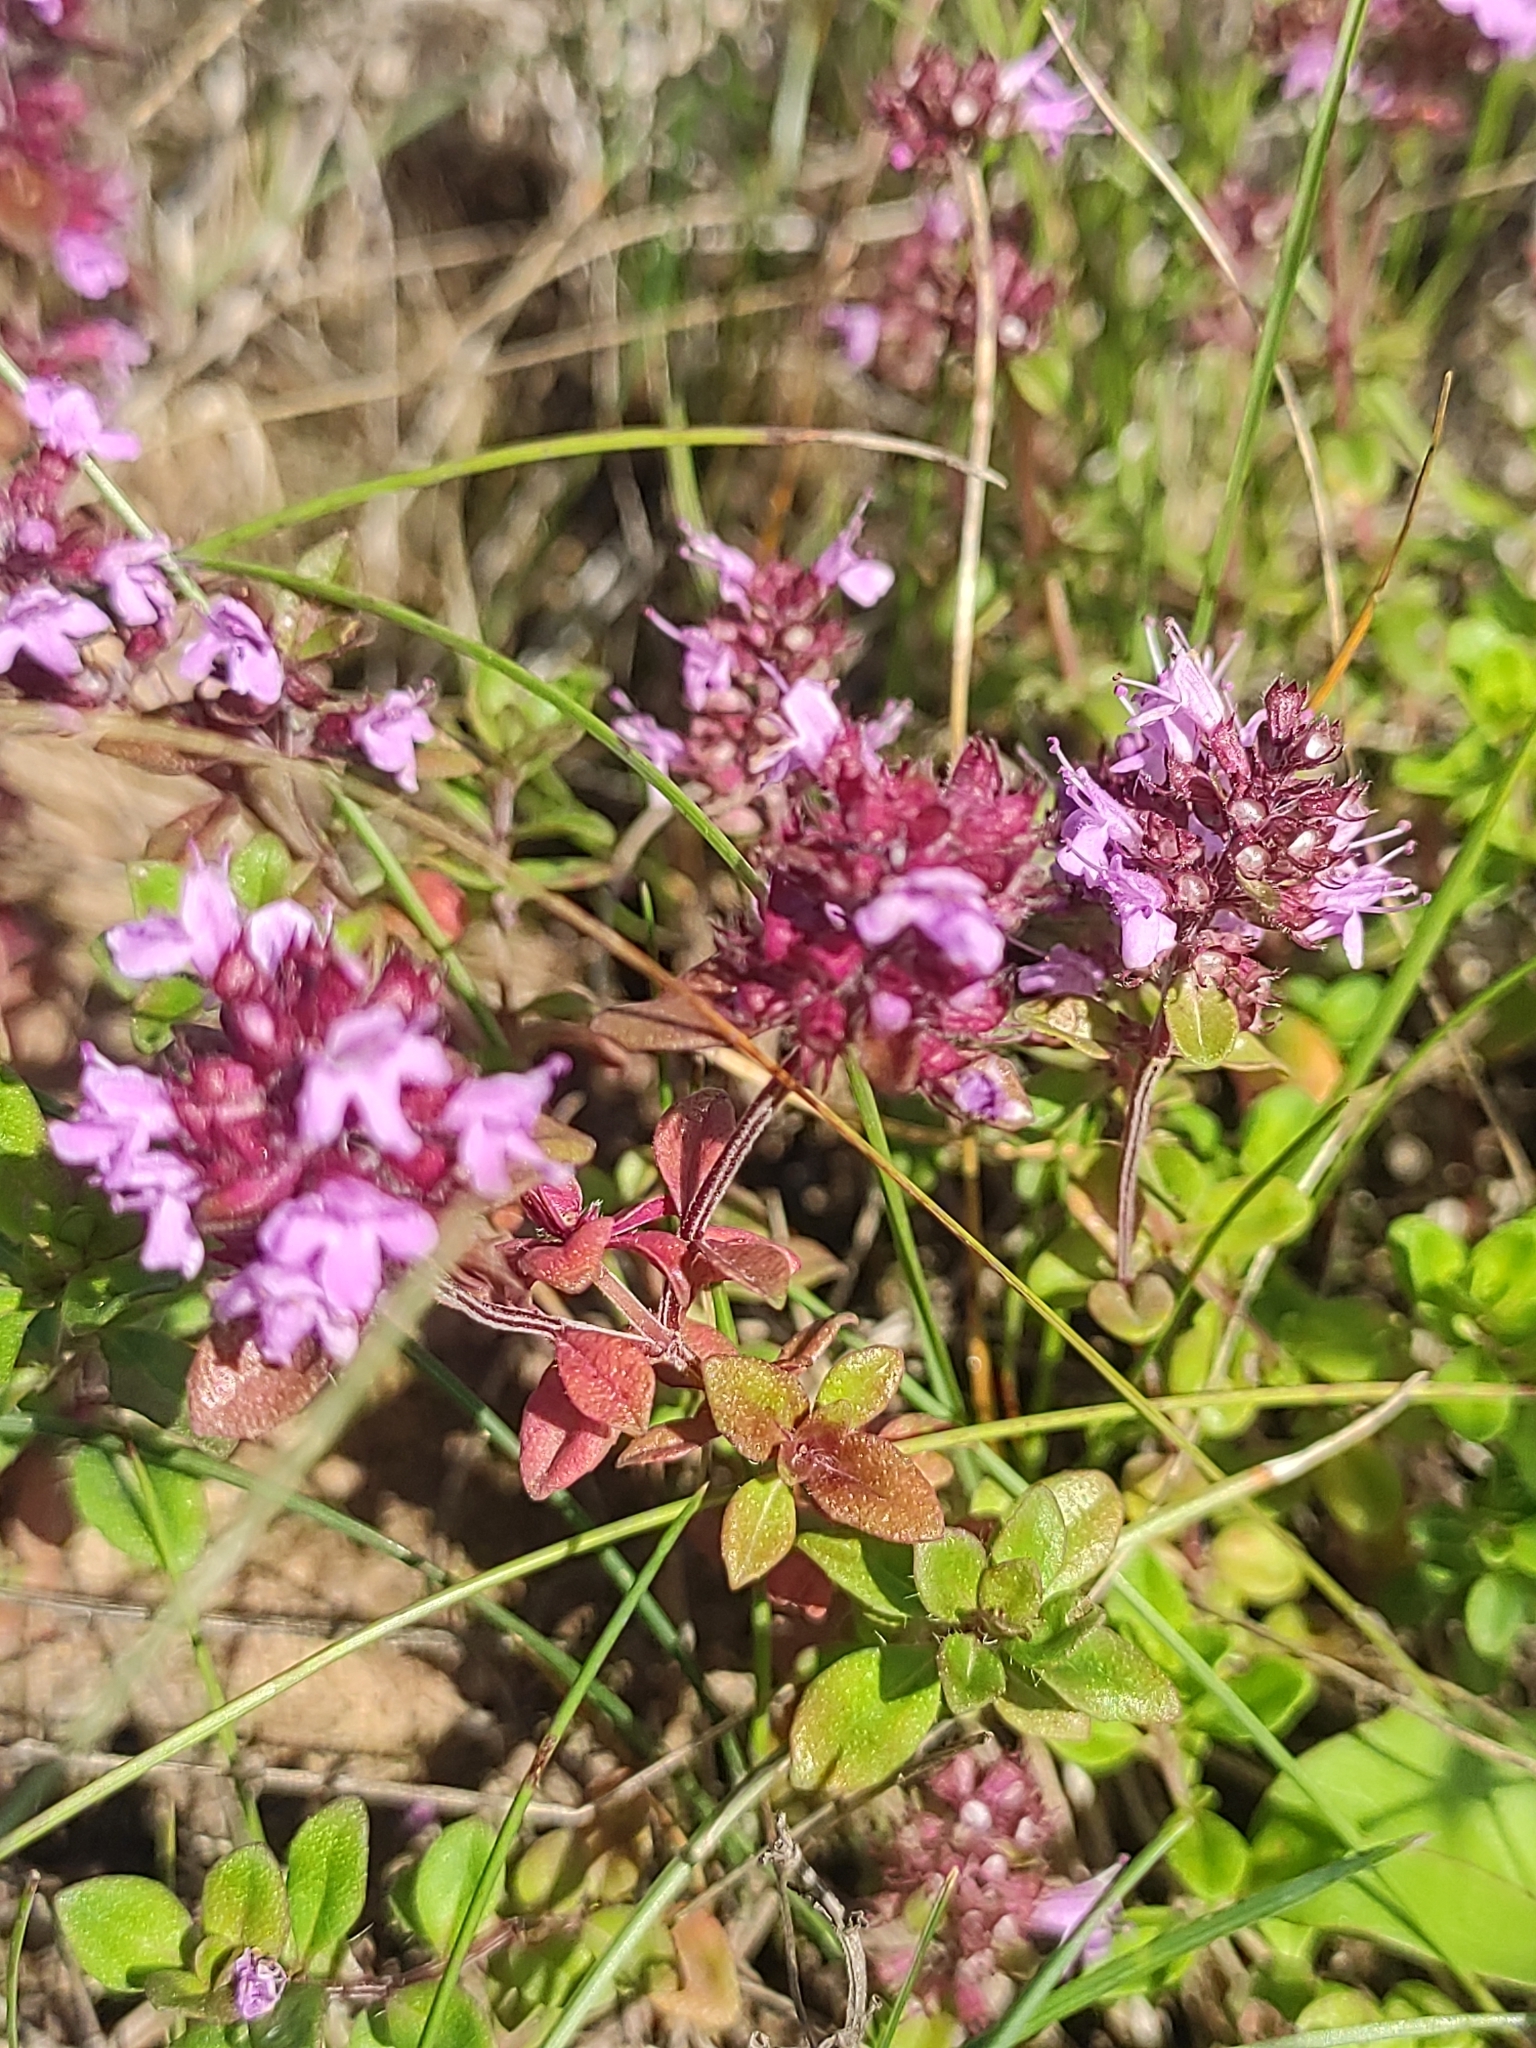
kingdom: Plantae
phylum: Tracheophyta
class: Magnoliopsida
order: Lamiales
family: Lamiaceae
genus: Thymus
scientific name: Thymus pulegioides
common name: Large thyme
